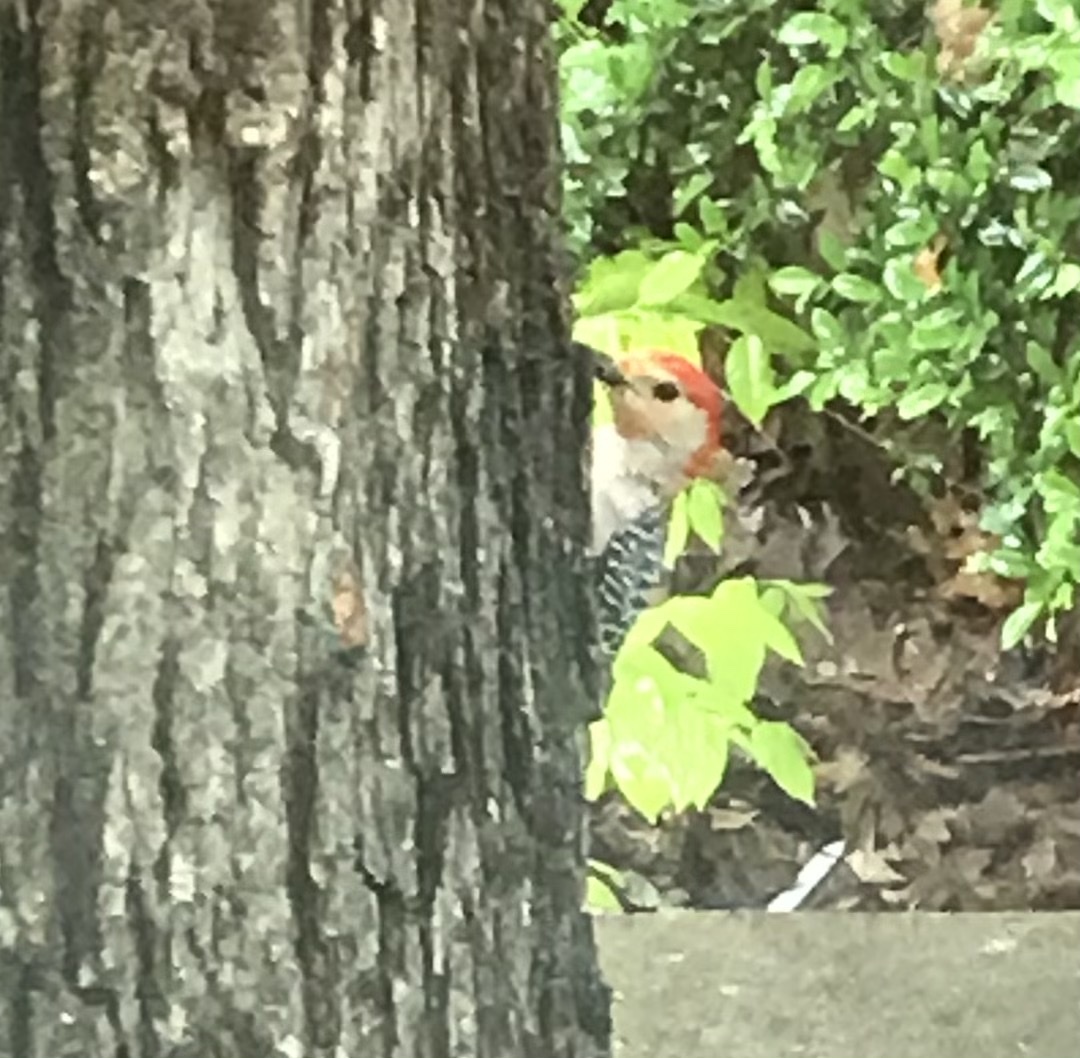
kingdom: Animalia
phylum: Chordata
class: Aves
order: Piciformes
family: Picidae
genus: Melanerpes
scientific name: Melanerpes carolinus
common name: Red-bellied woodpecker
